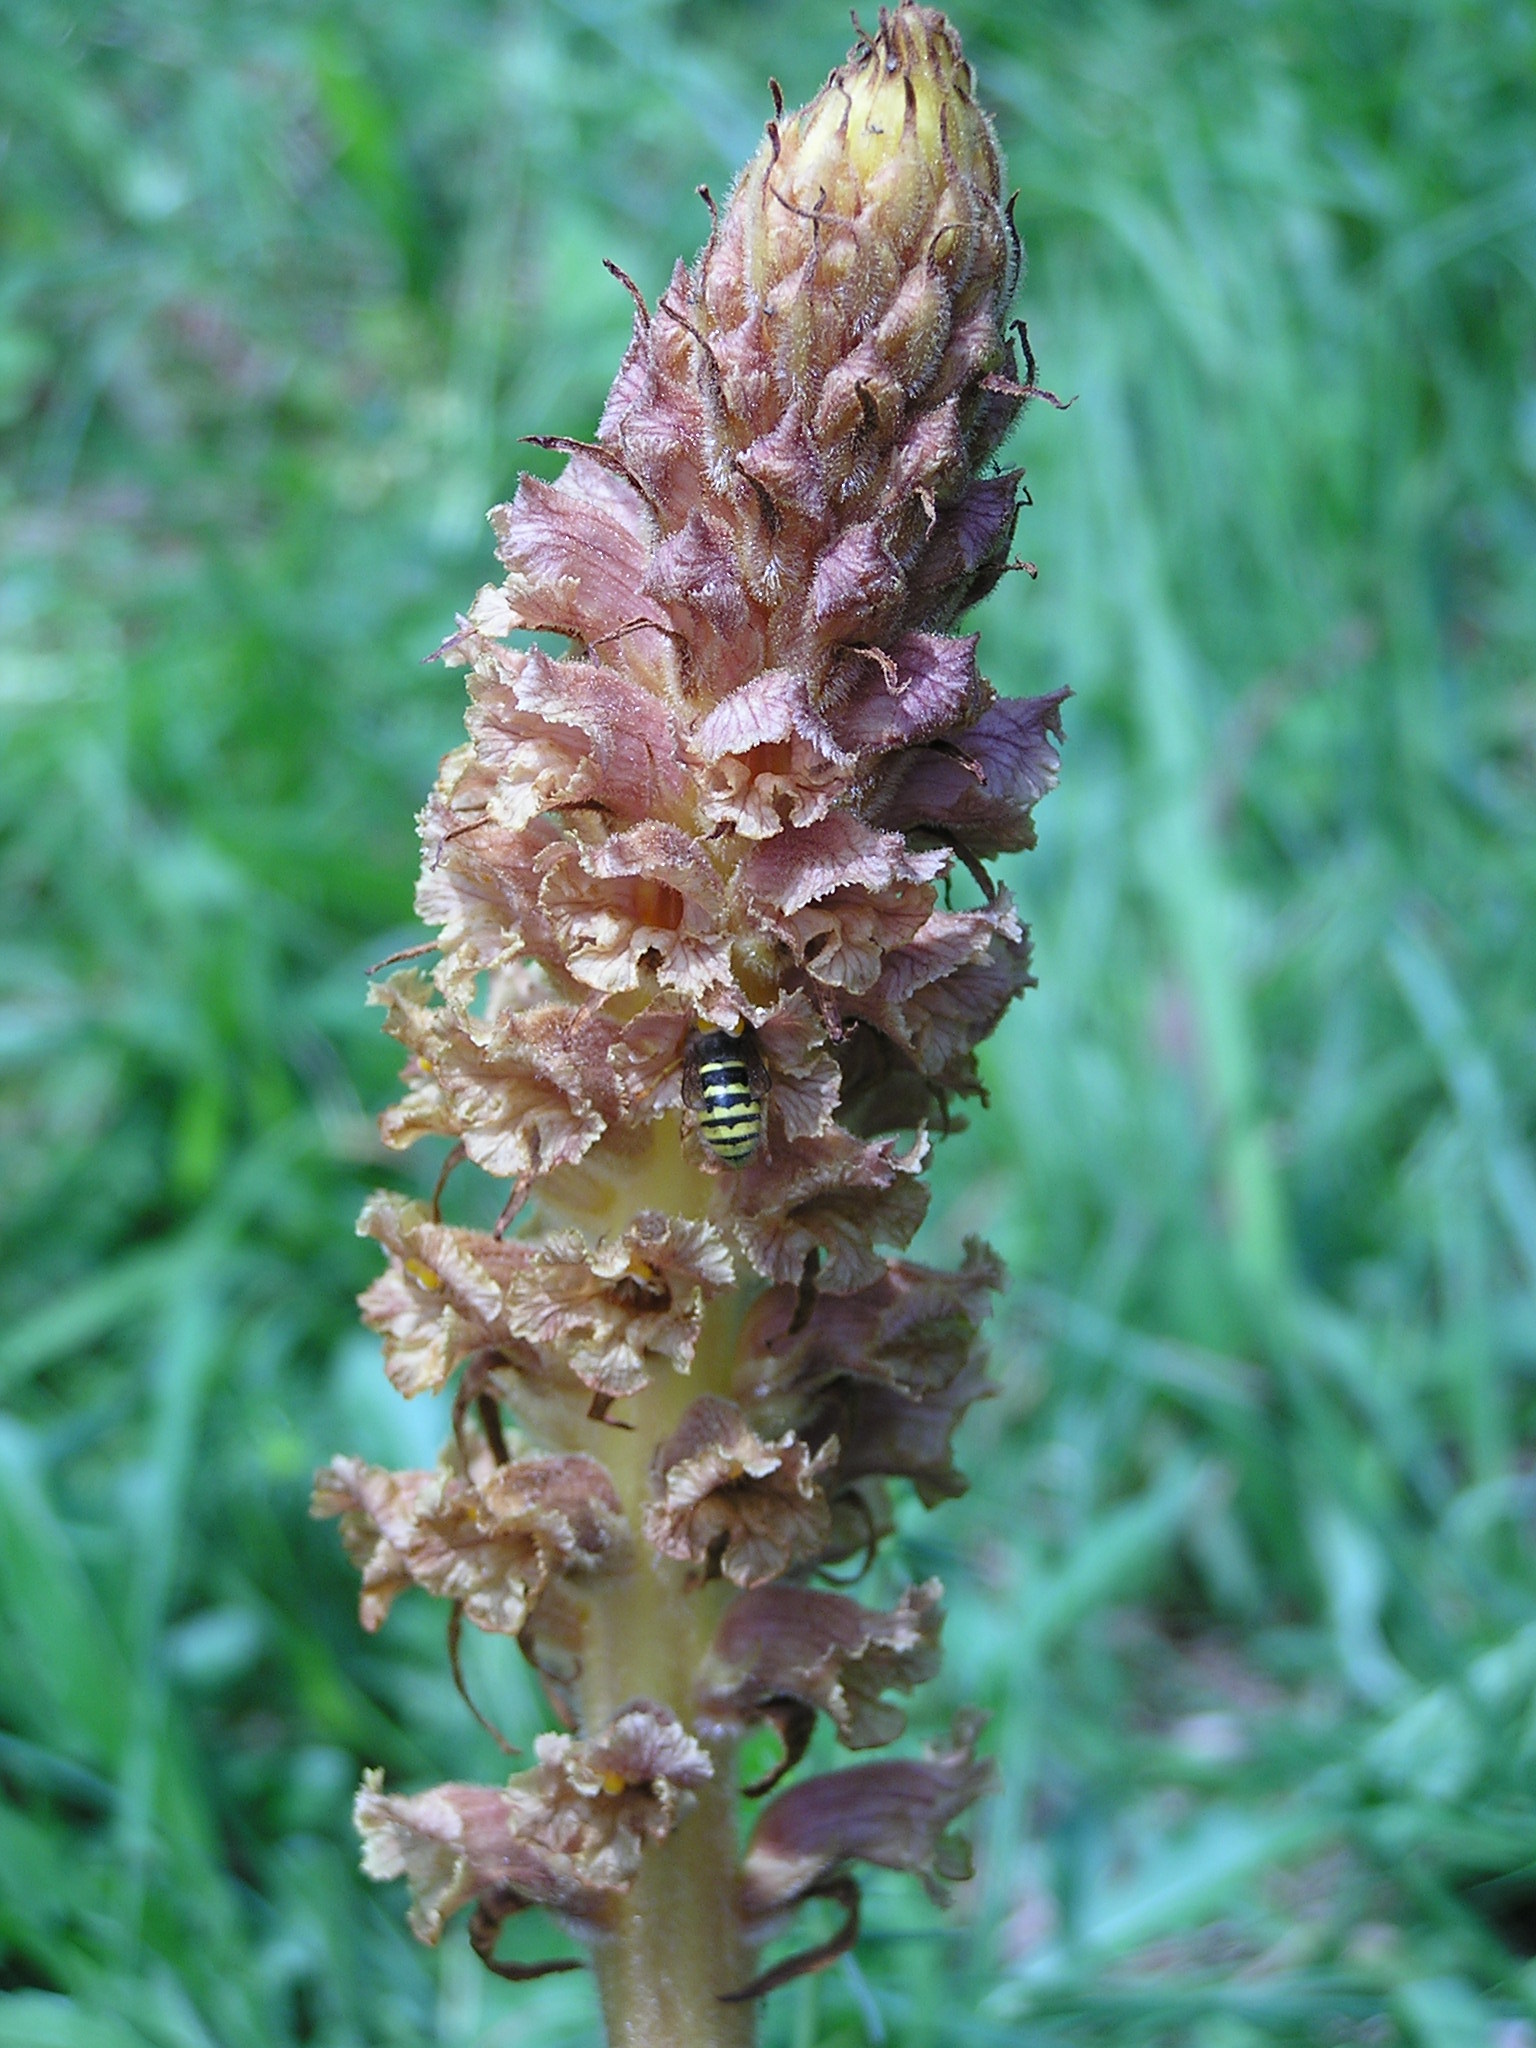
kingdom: Plantae
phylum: Tracheophyta
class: Magnoliopsida
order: Lamiales
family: Orobanchaceae
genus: Orobanche
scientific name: Orobanche elatior
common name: Knapweed broomrape
